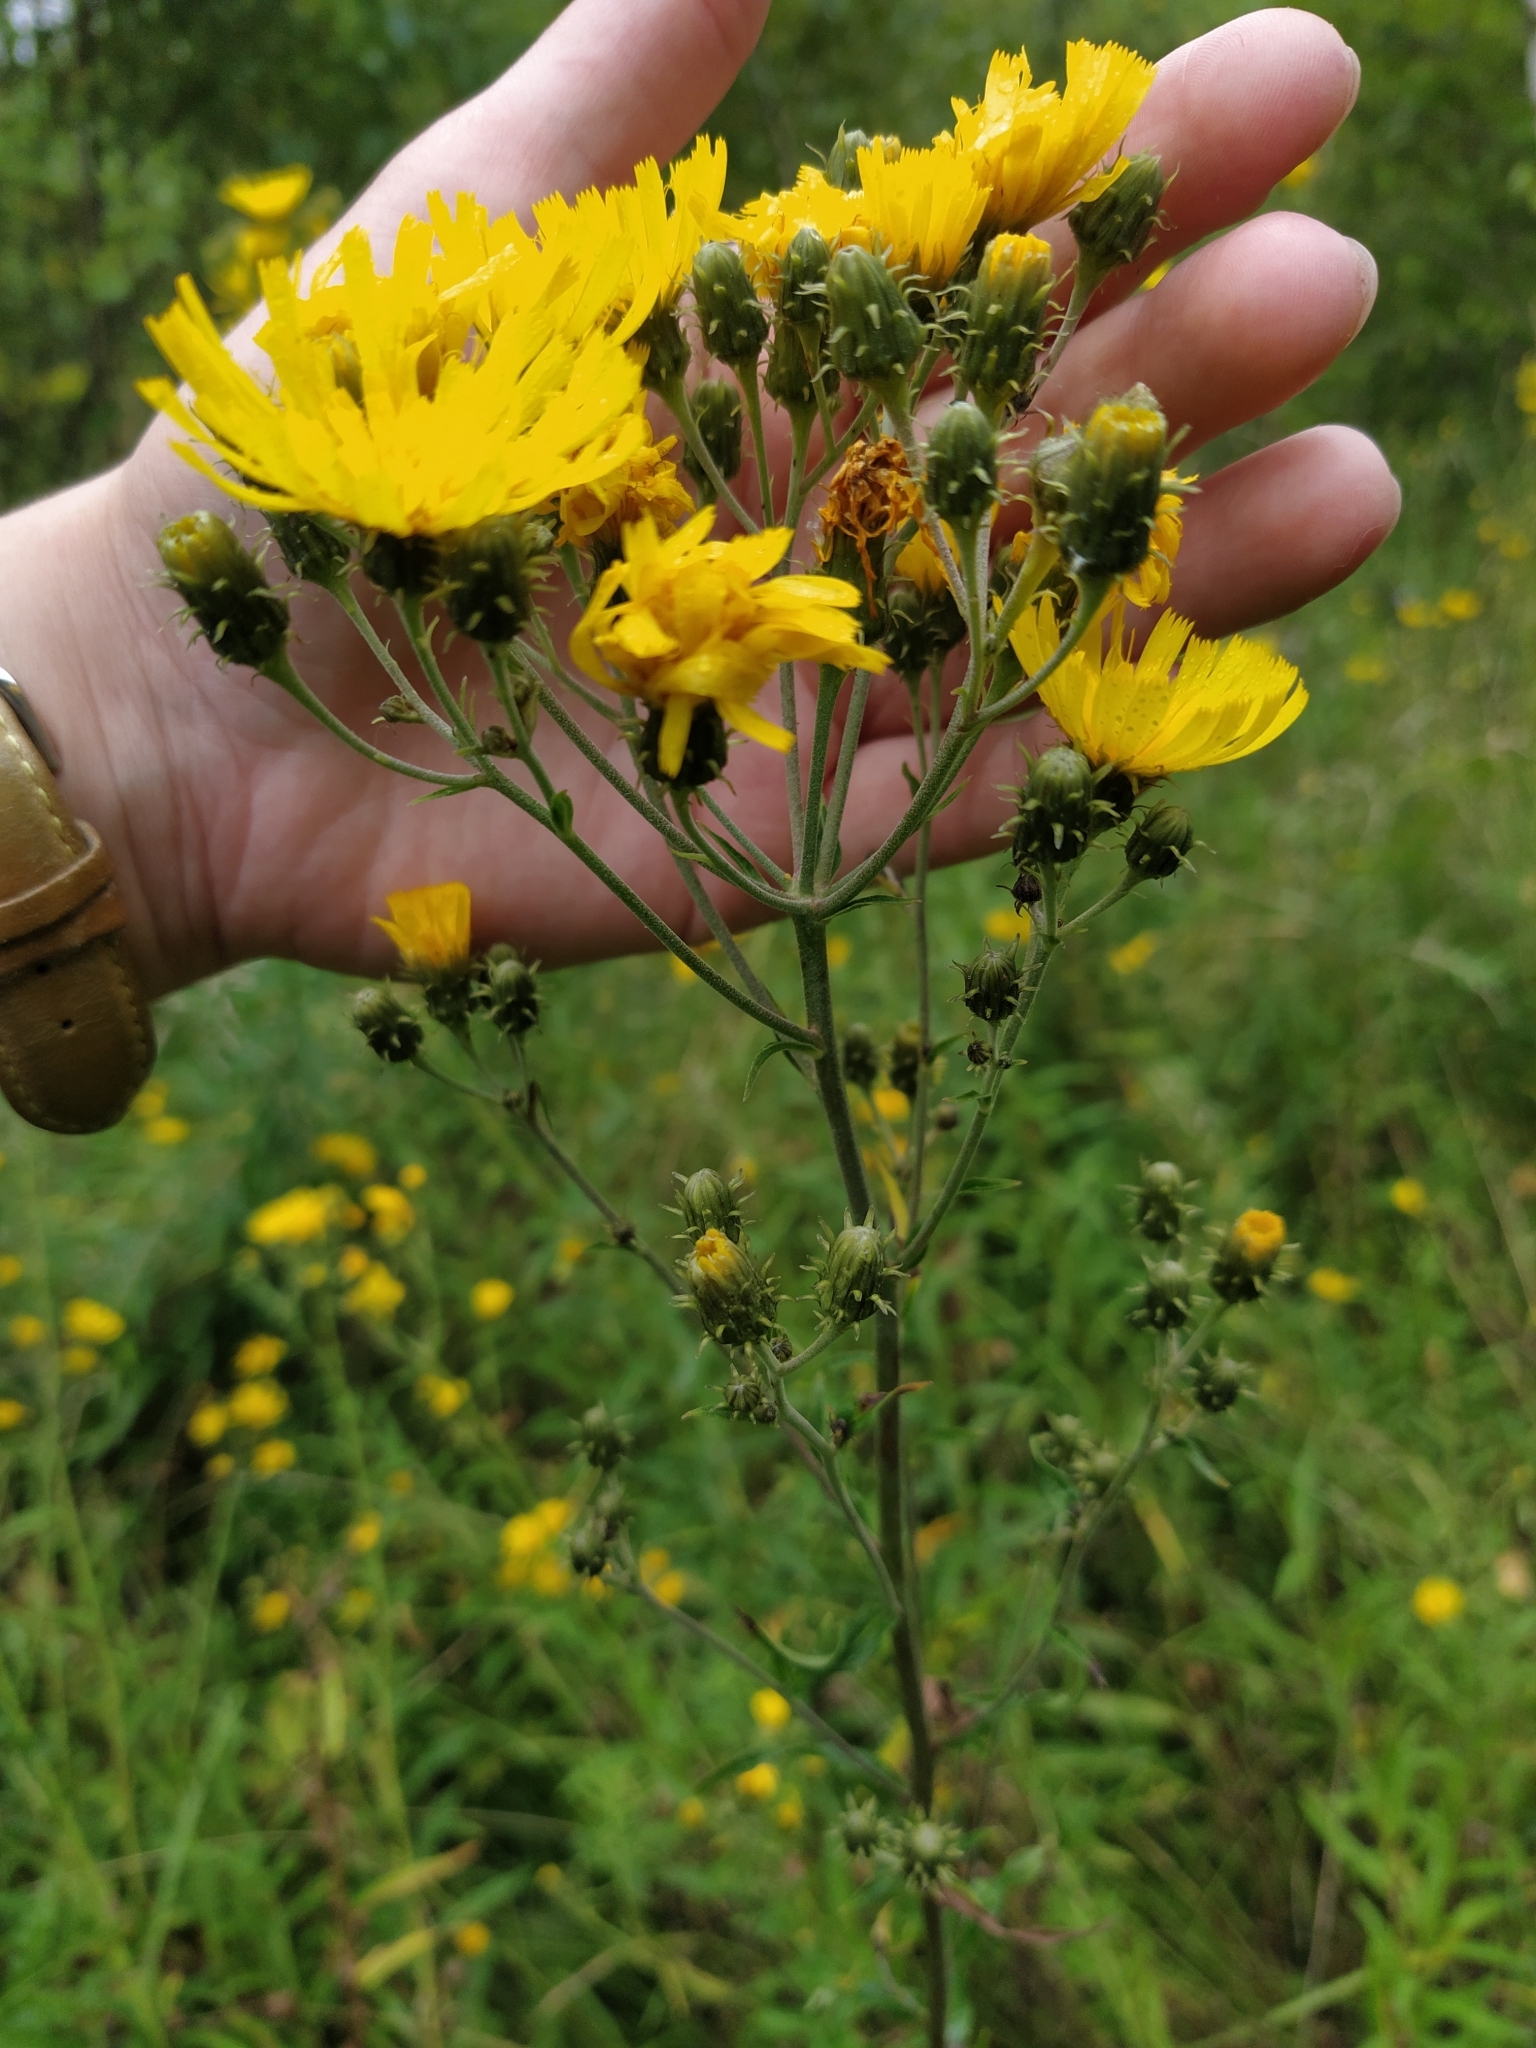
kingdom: Plantae
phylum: Tracheophyta
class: Magnoliopsida
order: Asterales
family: Asteraceae
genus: Hieracium
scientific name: Hieracium umbellatum
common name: Northern hawkweed
